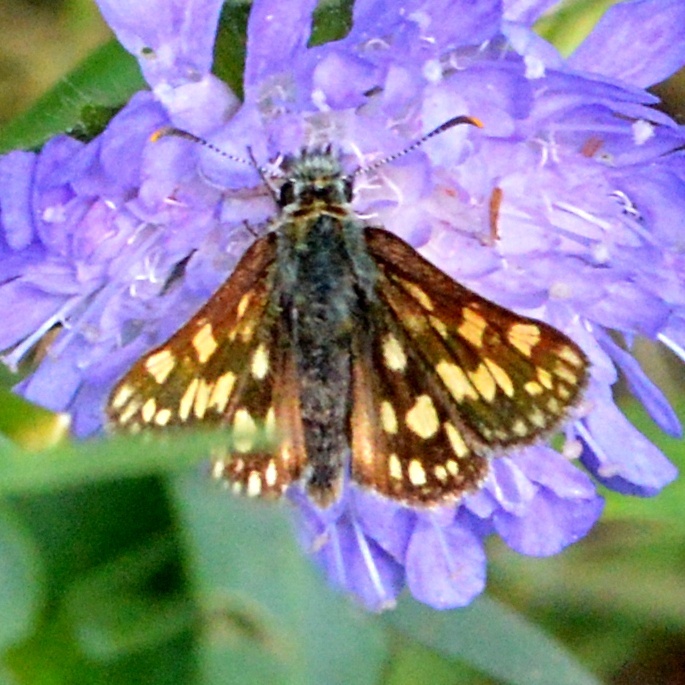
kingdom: Animalia
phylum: Arthropoda
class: Insecta
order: Lepidoptera
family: Hesperiidae
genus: Carterocephalus
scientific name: Carterocephalus palaemon
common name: Chequered skipper
